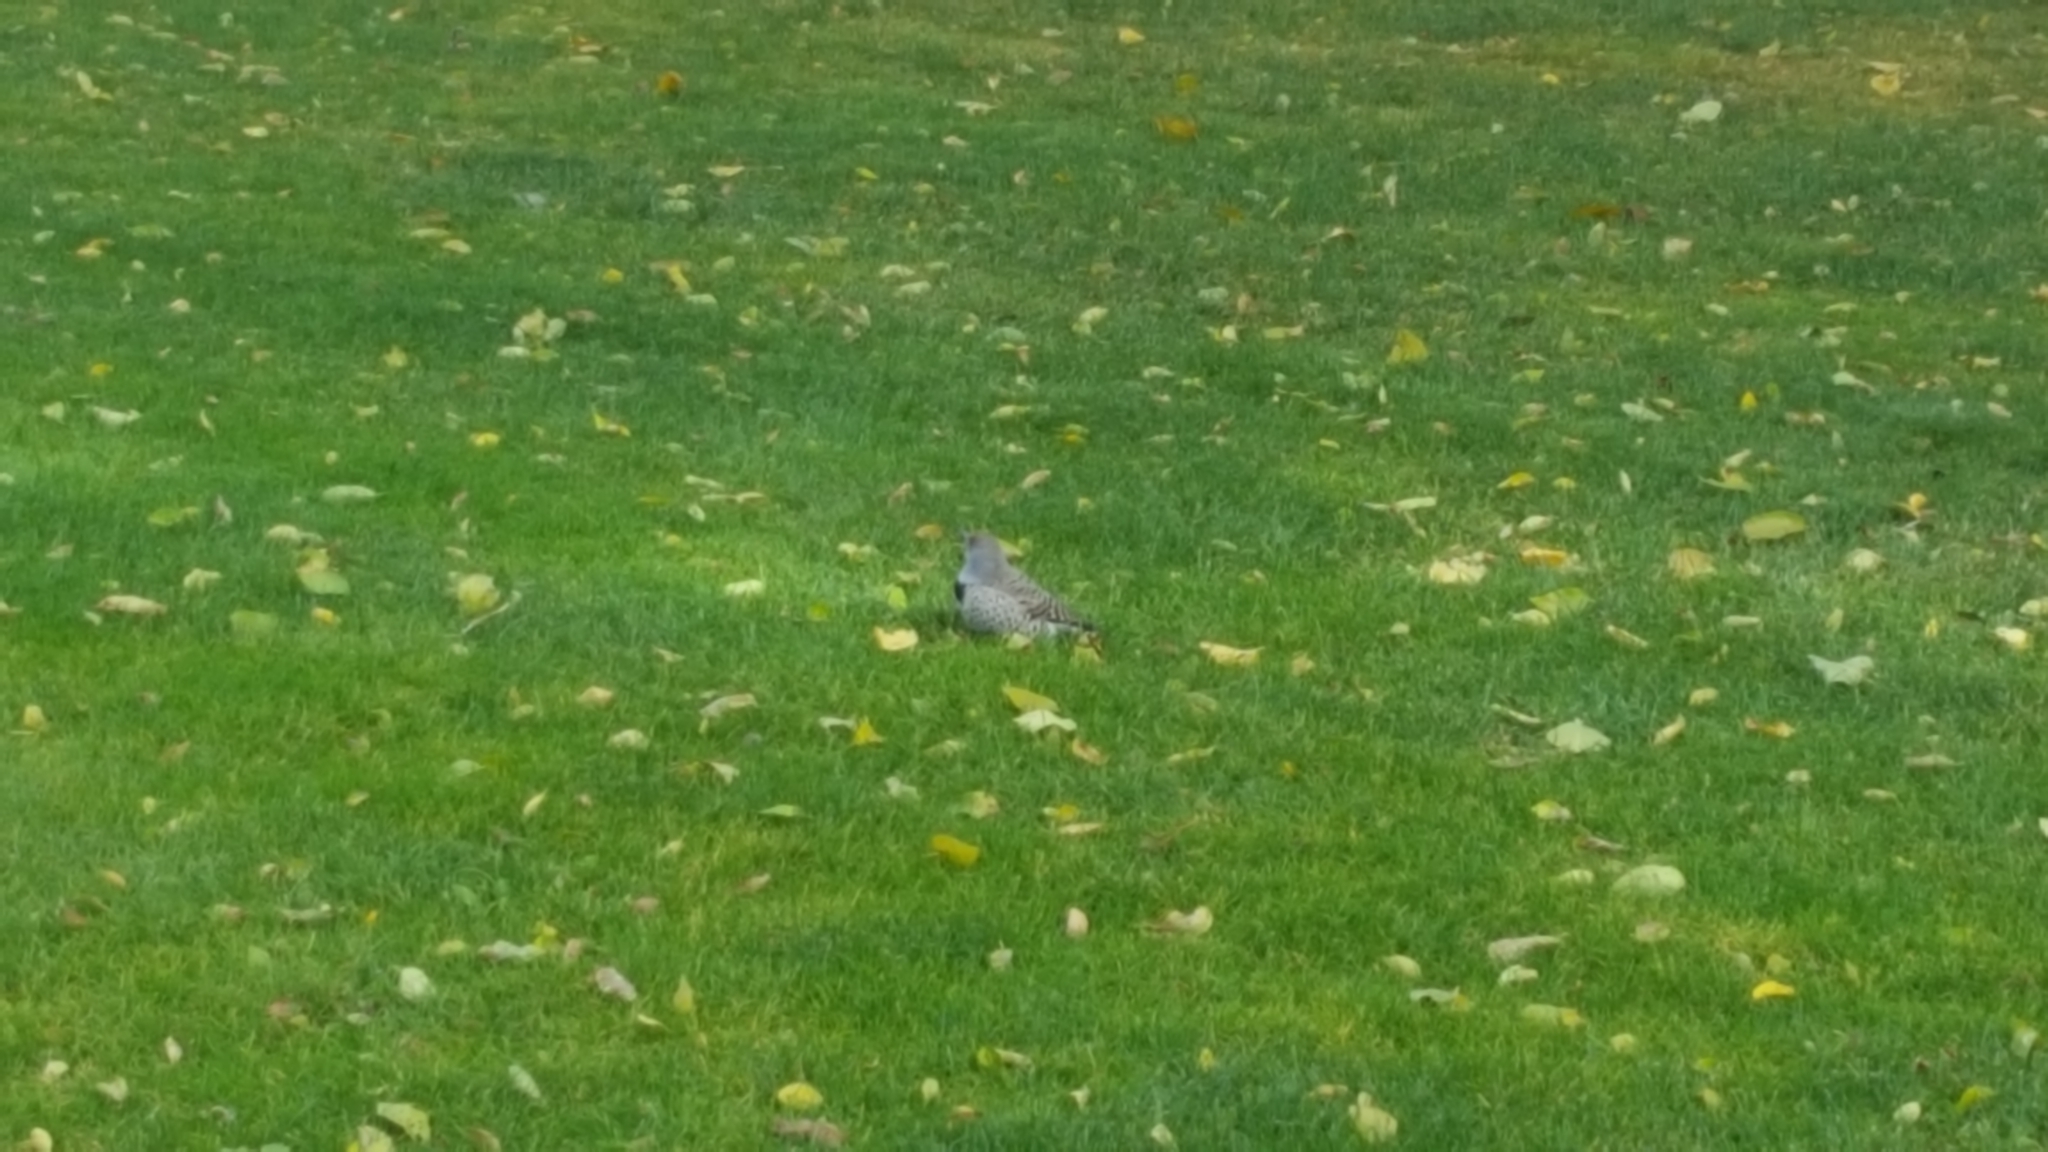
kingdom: Animalia
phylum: Chordata
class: Aves
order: Piciformes
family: Picidae
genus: Colaptes
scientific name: Colaptes auratus
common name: Northern flicker
